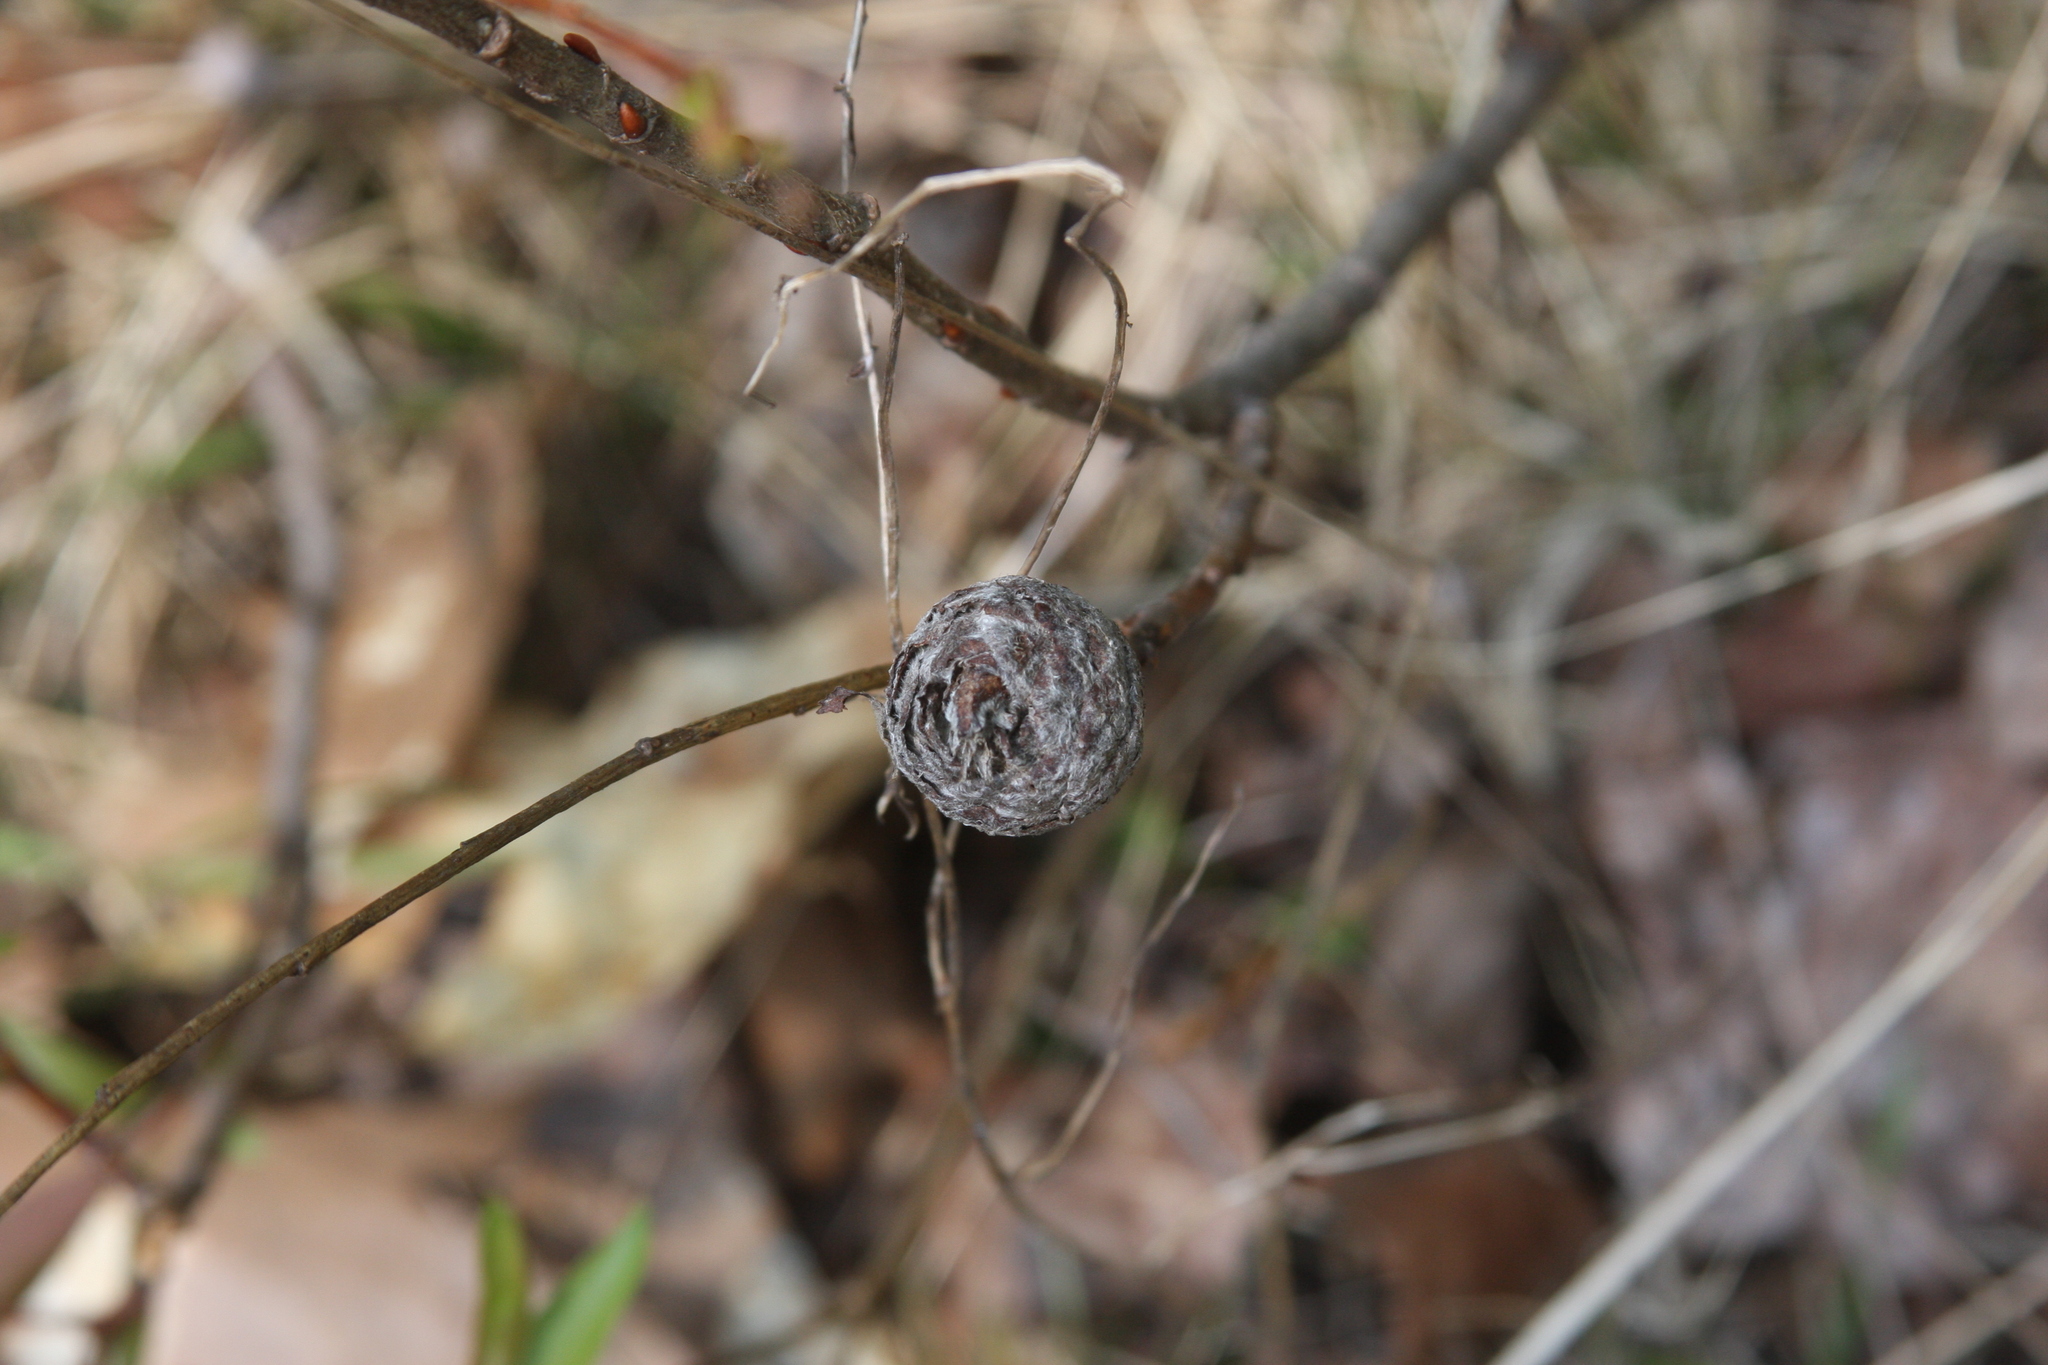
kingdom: Animalia
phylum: Arthropoda
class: Insecta
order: Diptera
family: Cecidomyiidae
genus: Rabdophaga
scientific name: Rabdophaga strobiloides
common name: Willow pinecone gall midge
